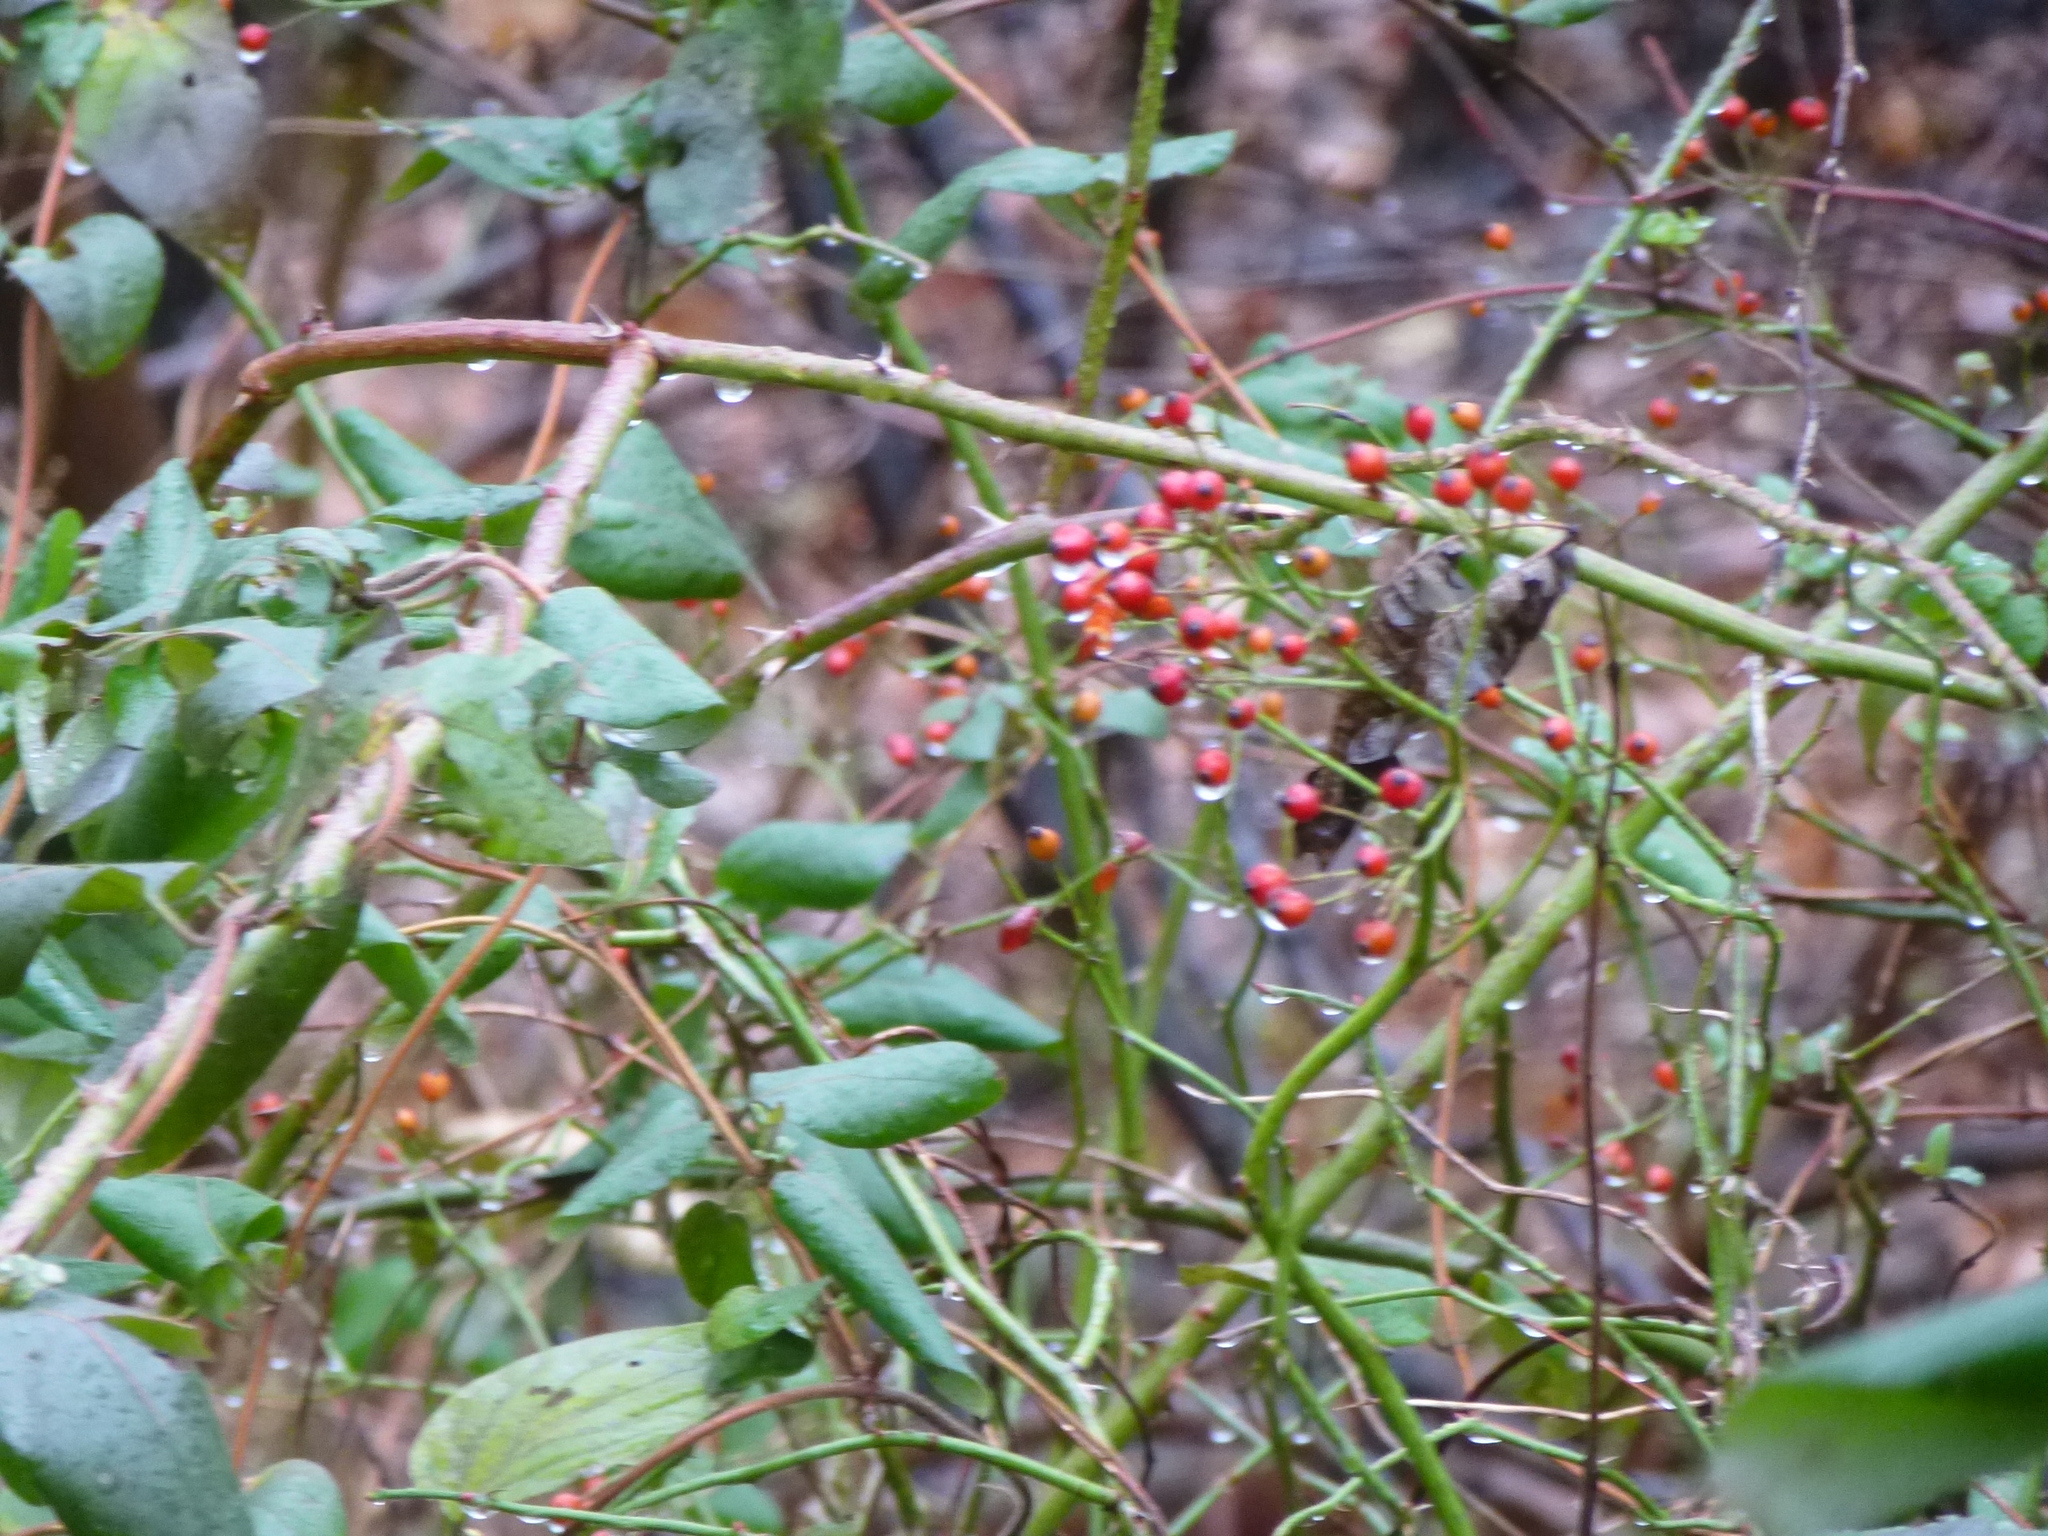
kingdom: Plantae
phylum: Tracheophyta
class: Magnoliopsida
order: Rosales
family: Rosaceae
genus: Rosa
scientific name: Rosa multiflora
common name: Multiflora rose
